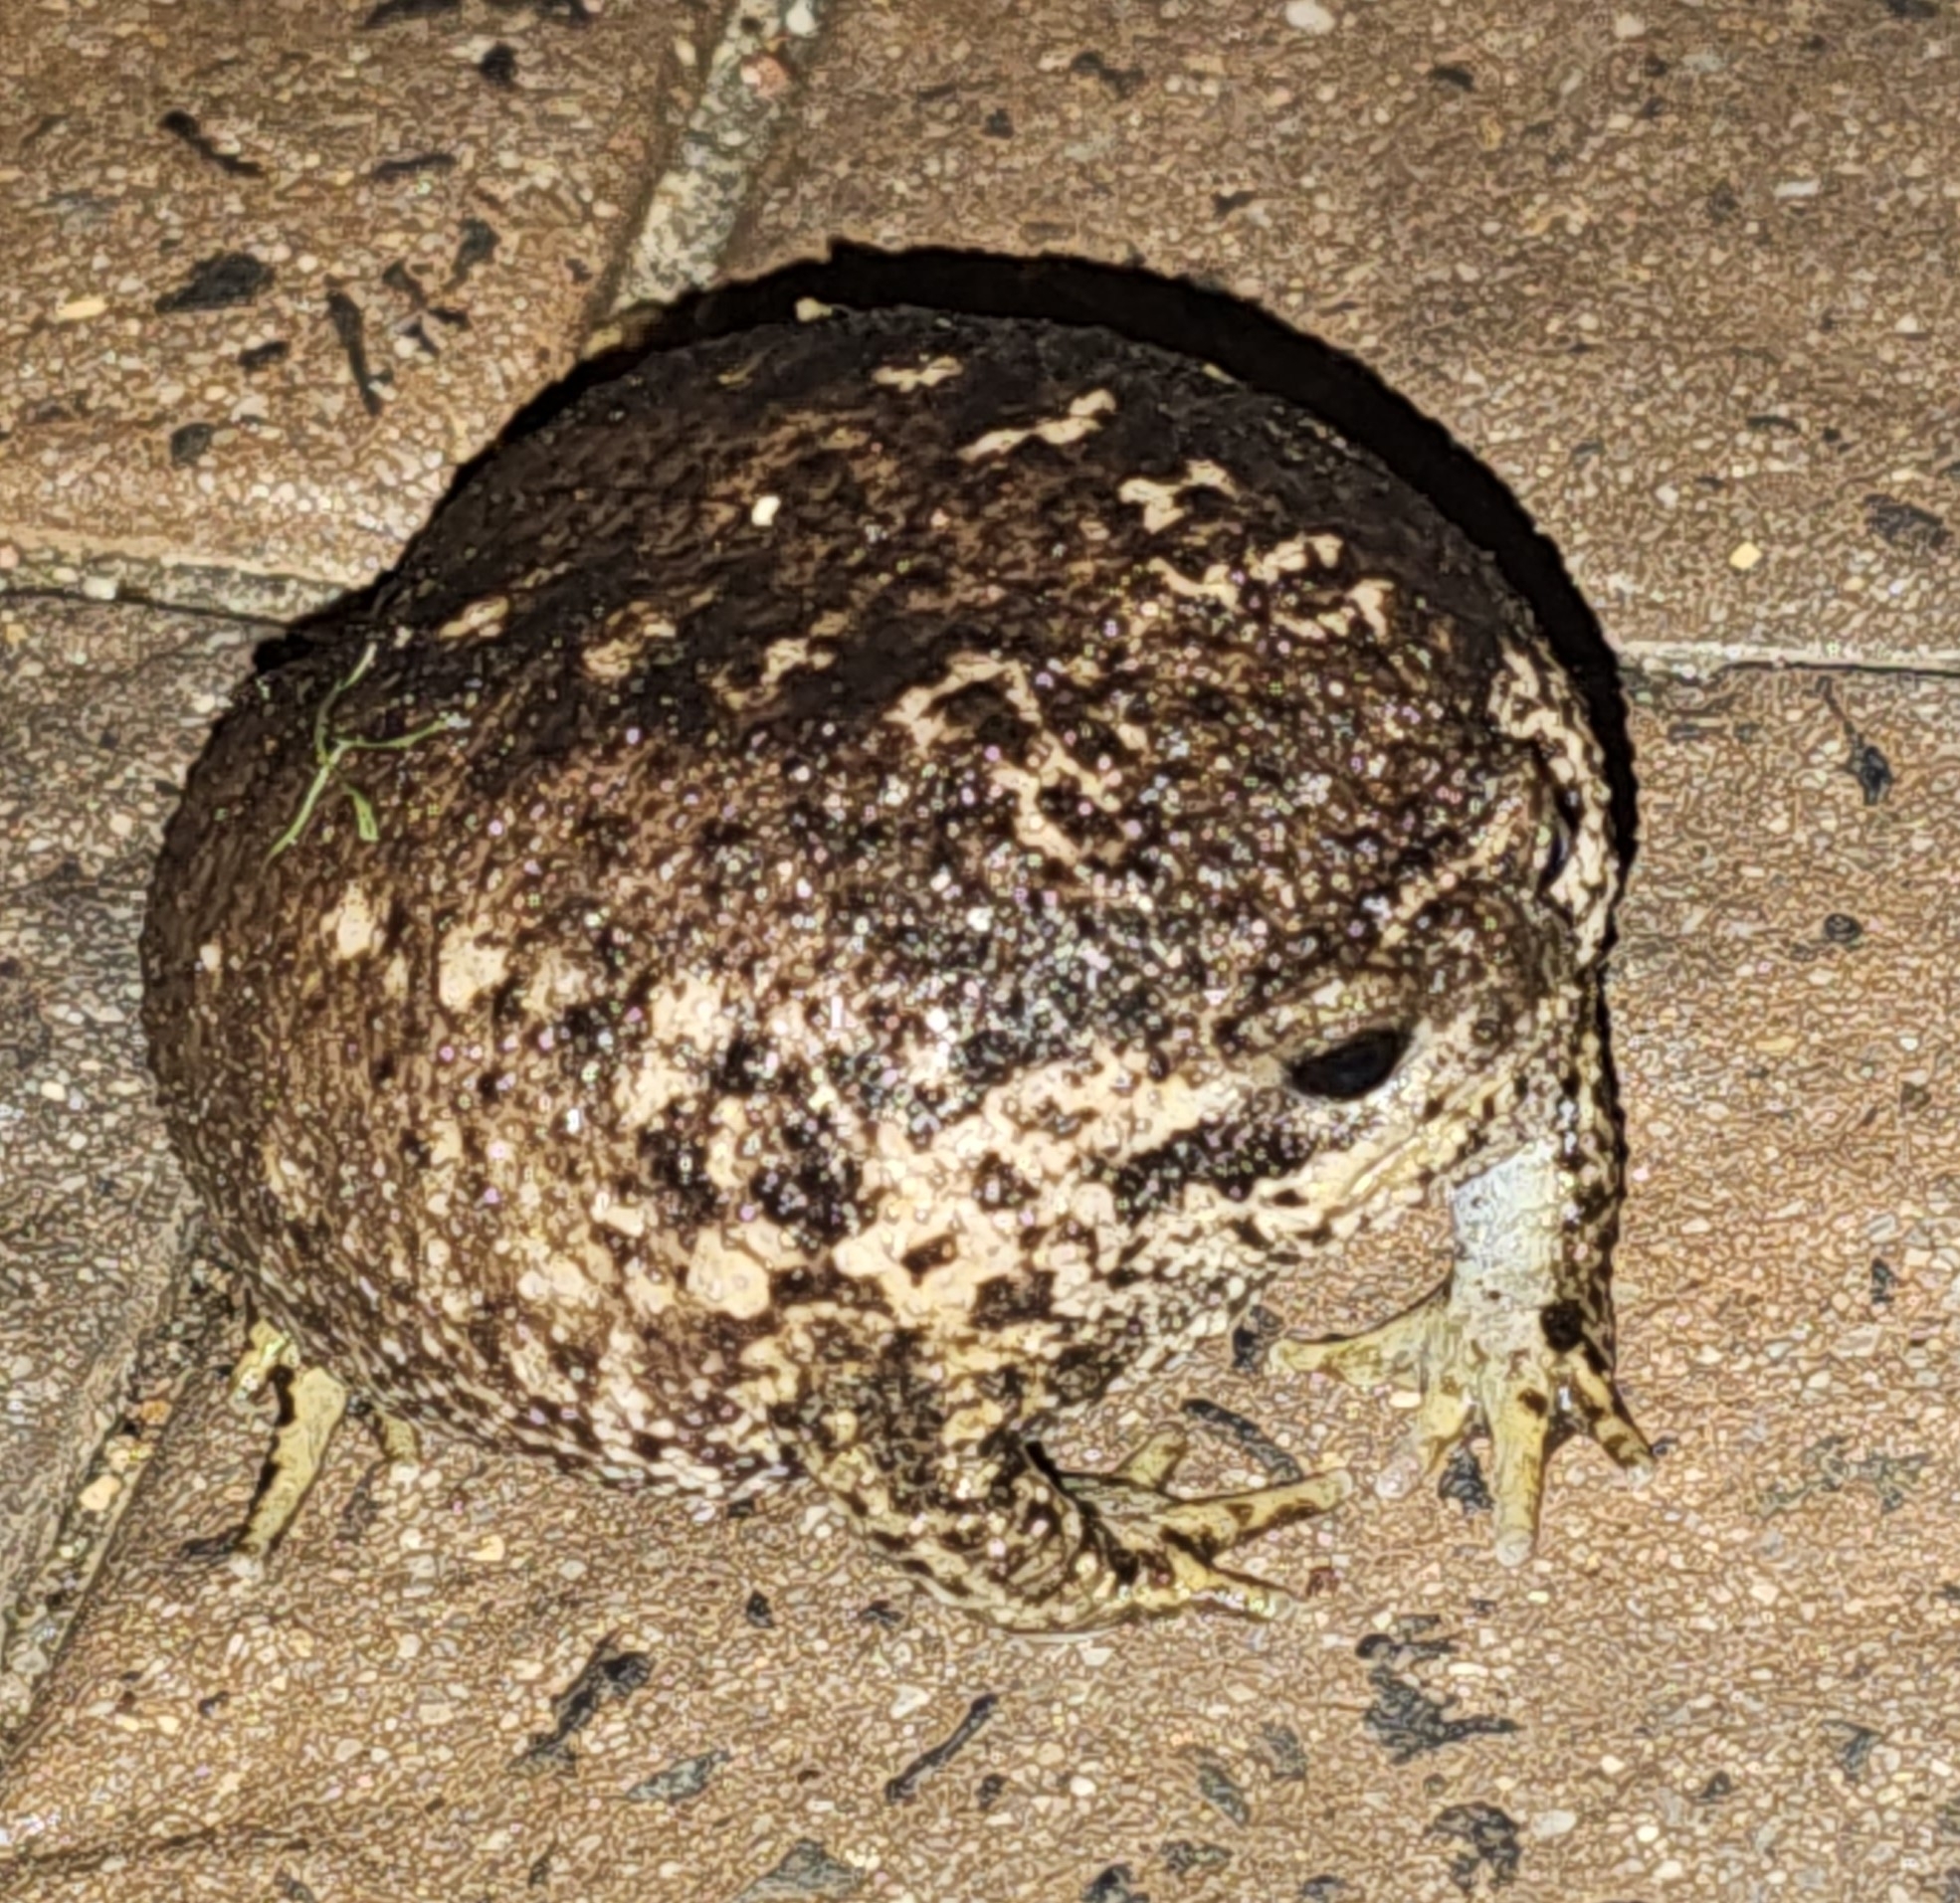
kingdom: Animalia
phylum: Chordata
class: Amphibia
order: Anura
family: Brevicipitidae
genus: Breviceps
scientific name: Breviceps gibbosus
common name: Cape rain frog
